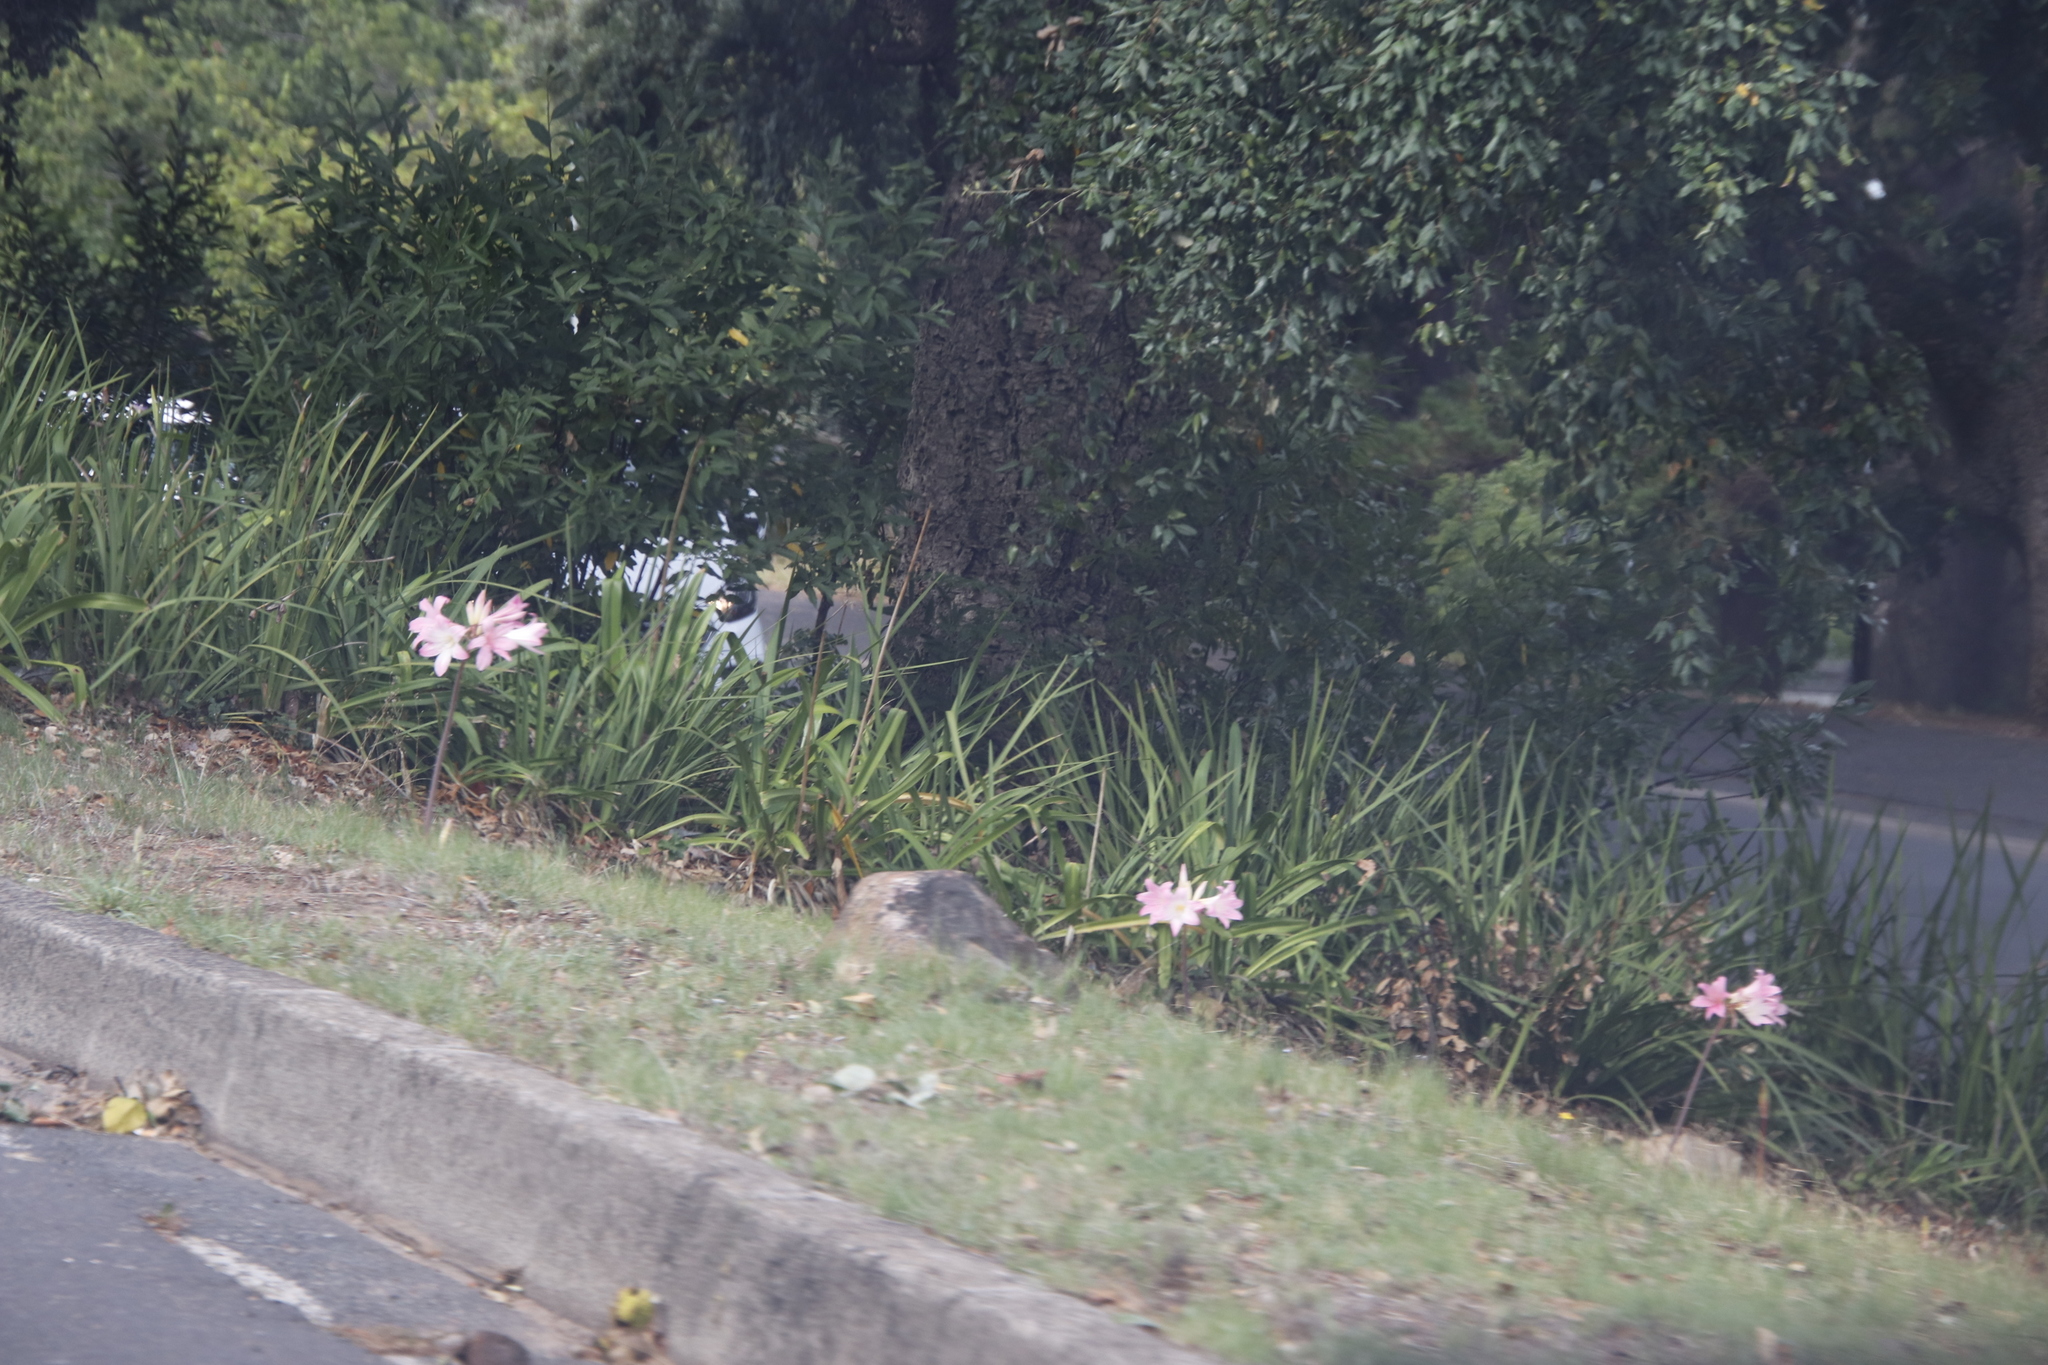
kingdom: Plantae
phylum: Tracheophyta
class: Liliopsida
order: Asparagales
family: Amaryllidaceae
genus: Amaryllis
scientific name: Amaryllis belladonna
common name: Jersey lily
